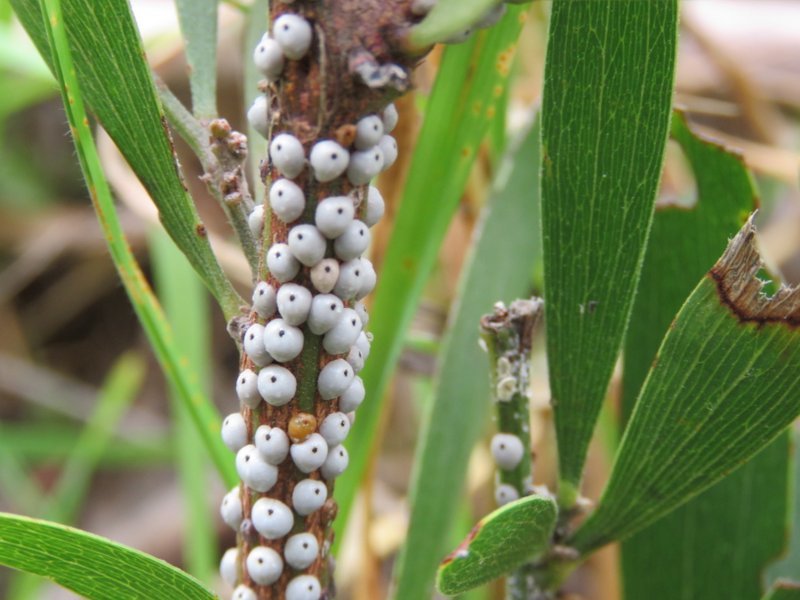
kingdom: Animalia
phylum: Arthropoda
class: Insecta
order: Hemiptera
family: Coccidae
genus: Cryptes
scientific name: Cryptes baccatus
